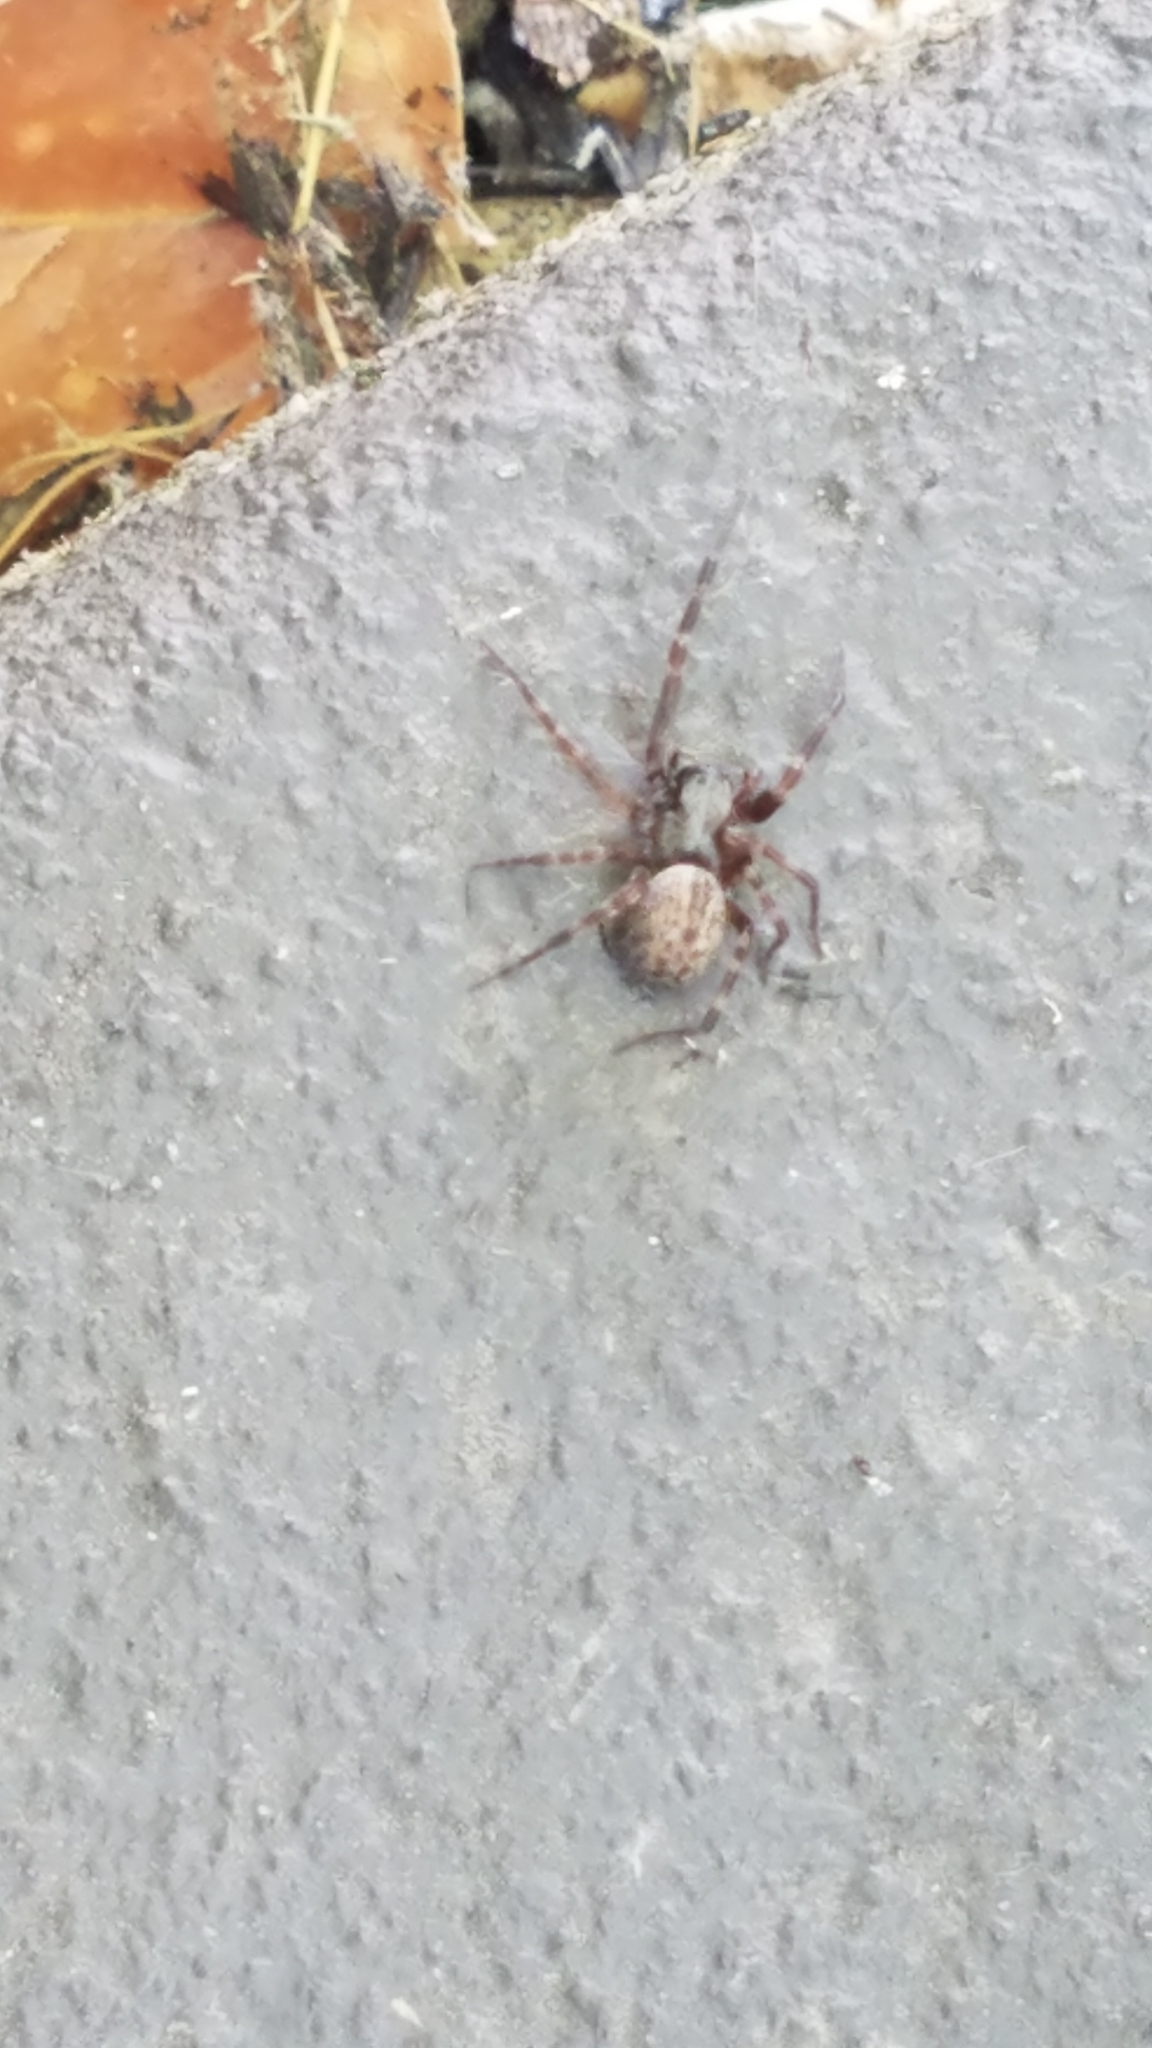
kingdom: Animalia
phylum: Arthropoda
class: Arachnida
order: Araneae
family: Desidae
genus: Badumna
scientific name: Badumna longinqua
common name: Gray house spider
